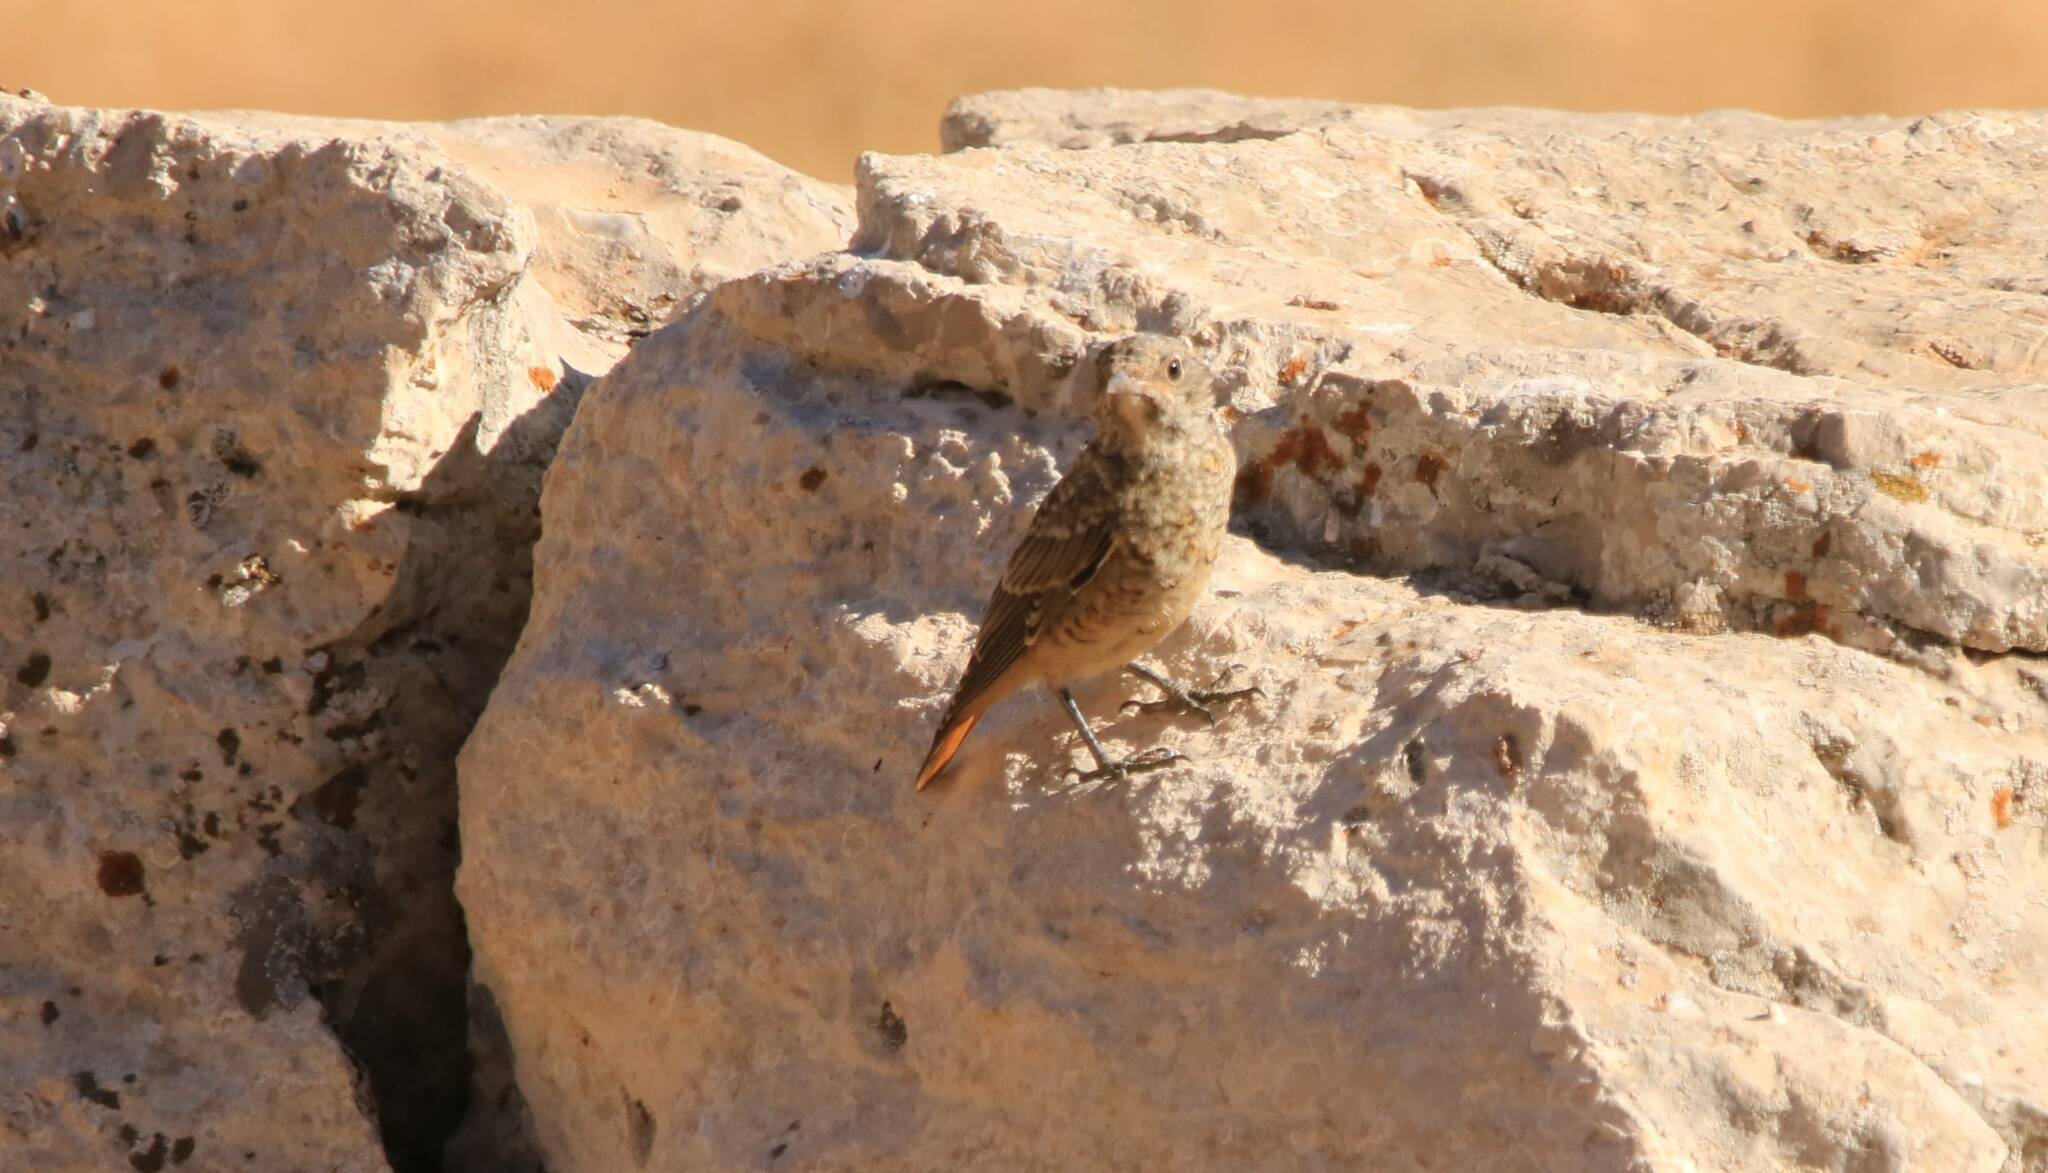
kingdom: Animalia
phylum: Chordata
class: Aves
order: Passeriformes
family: Muscicapidae
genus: Monticola
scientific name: Monticola saxatilis
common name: Rufous-tailed rock thrush
